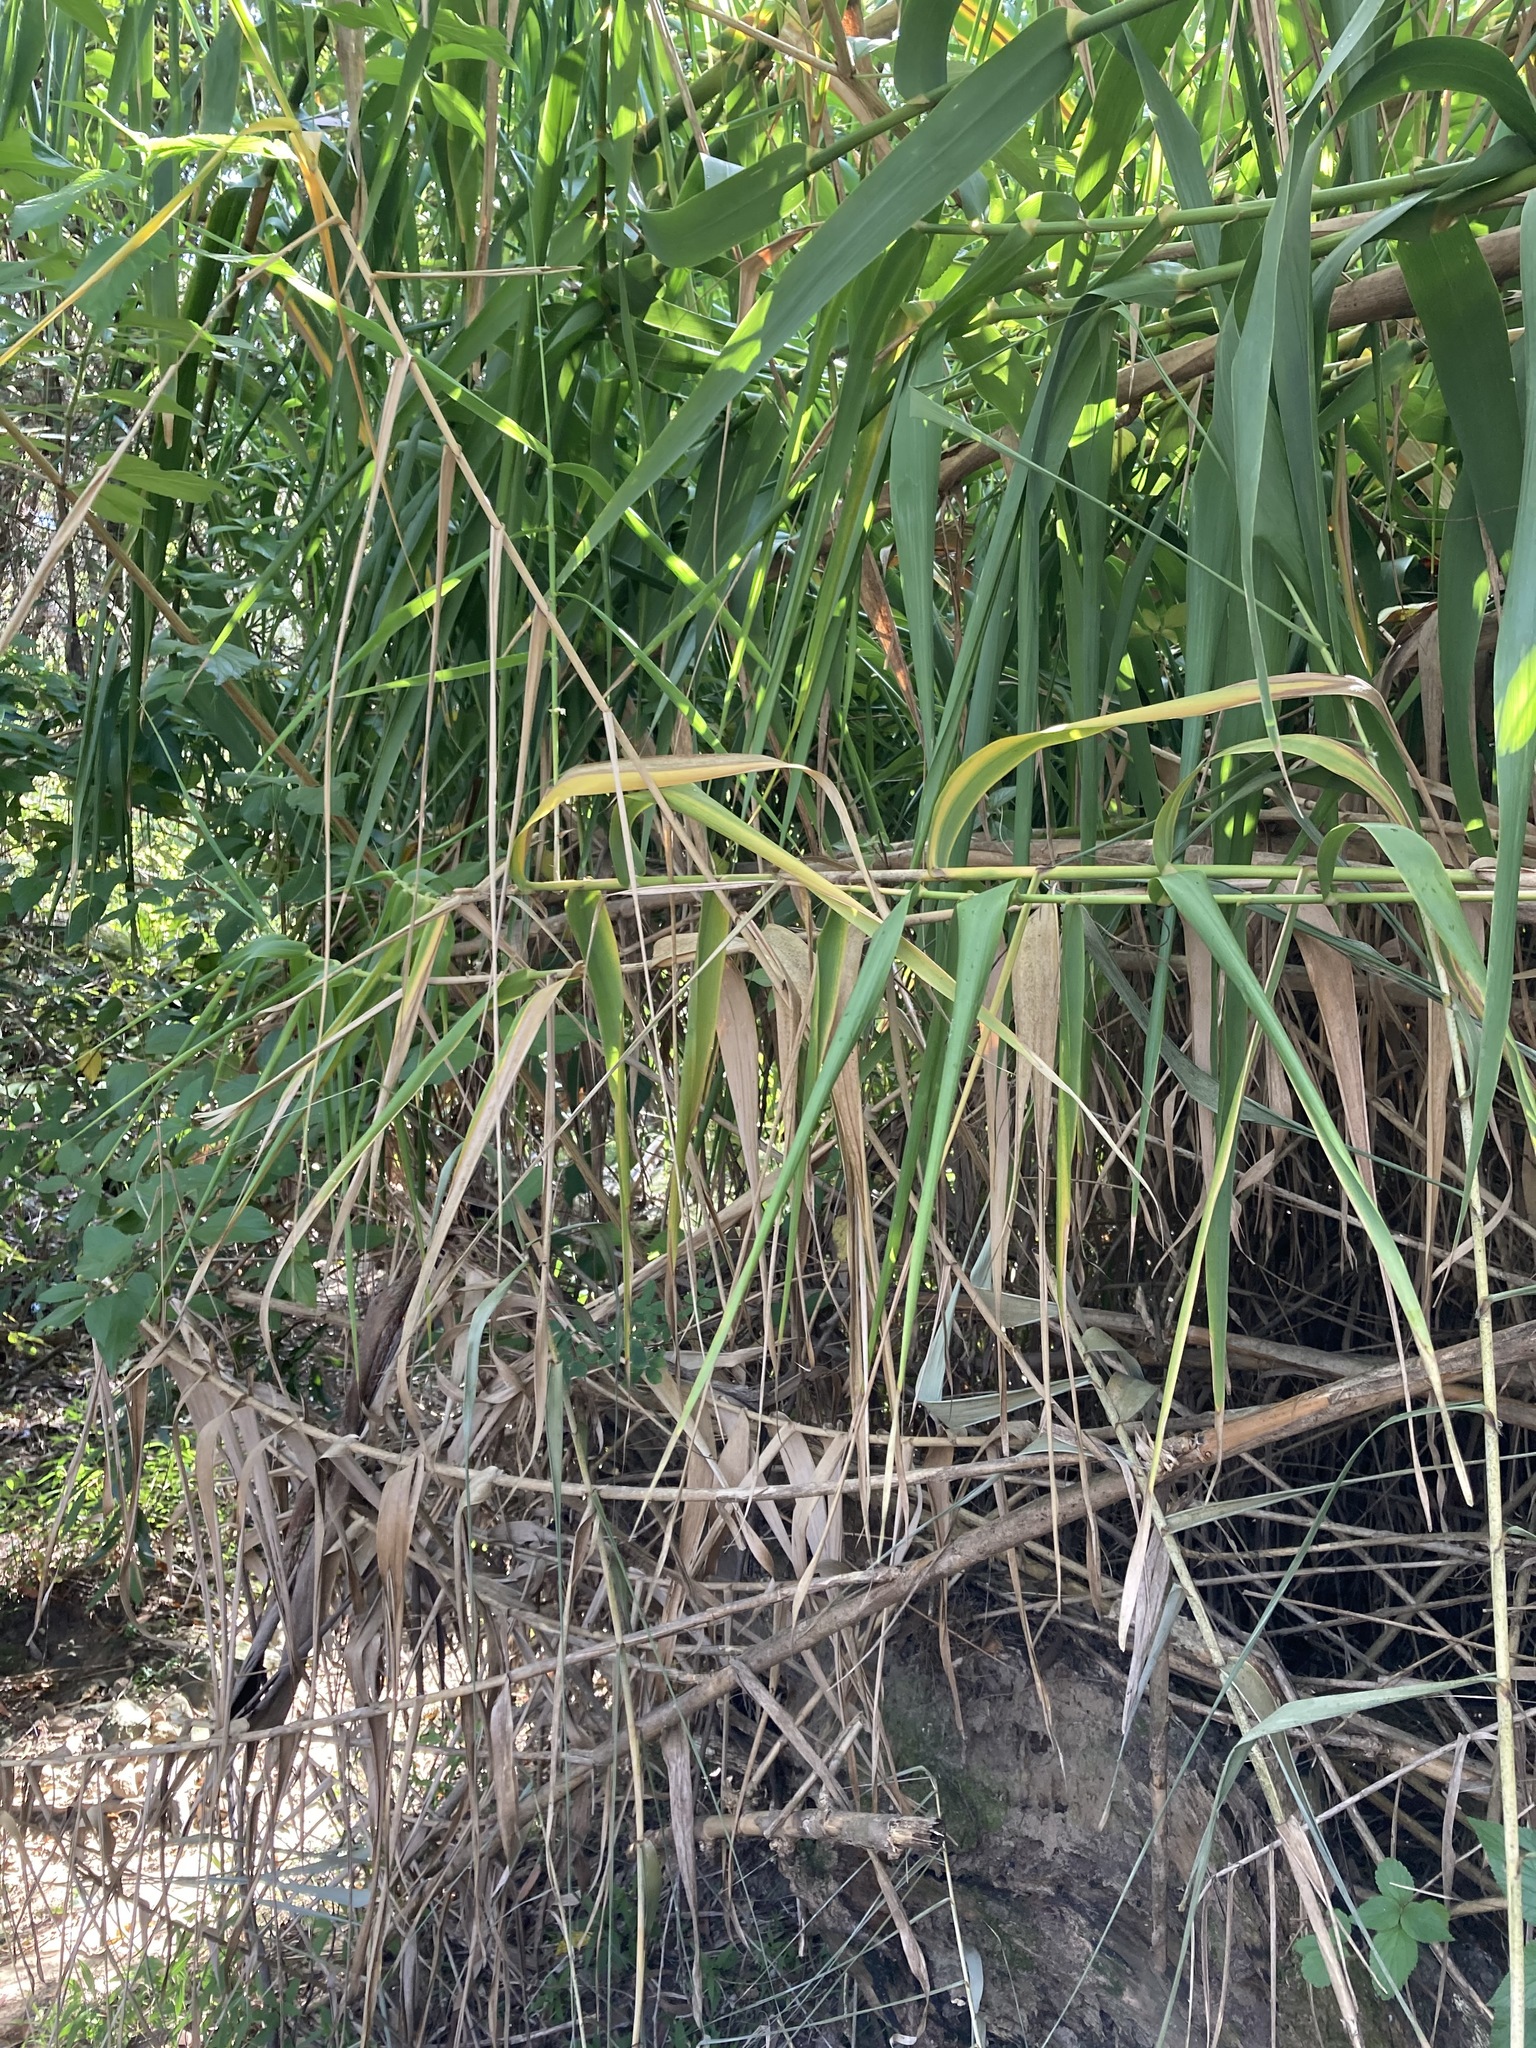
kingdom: Plantae
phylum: Tracheophyta
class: Liliopsida
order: Poales
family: Poaceae
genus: Arundo
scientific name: Arundo donax
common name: Giant reed
